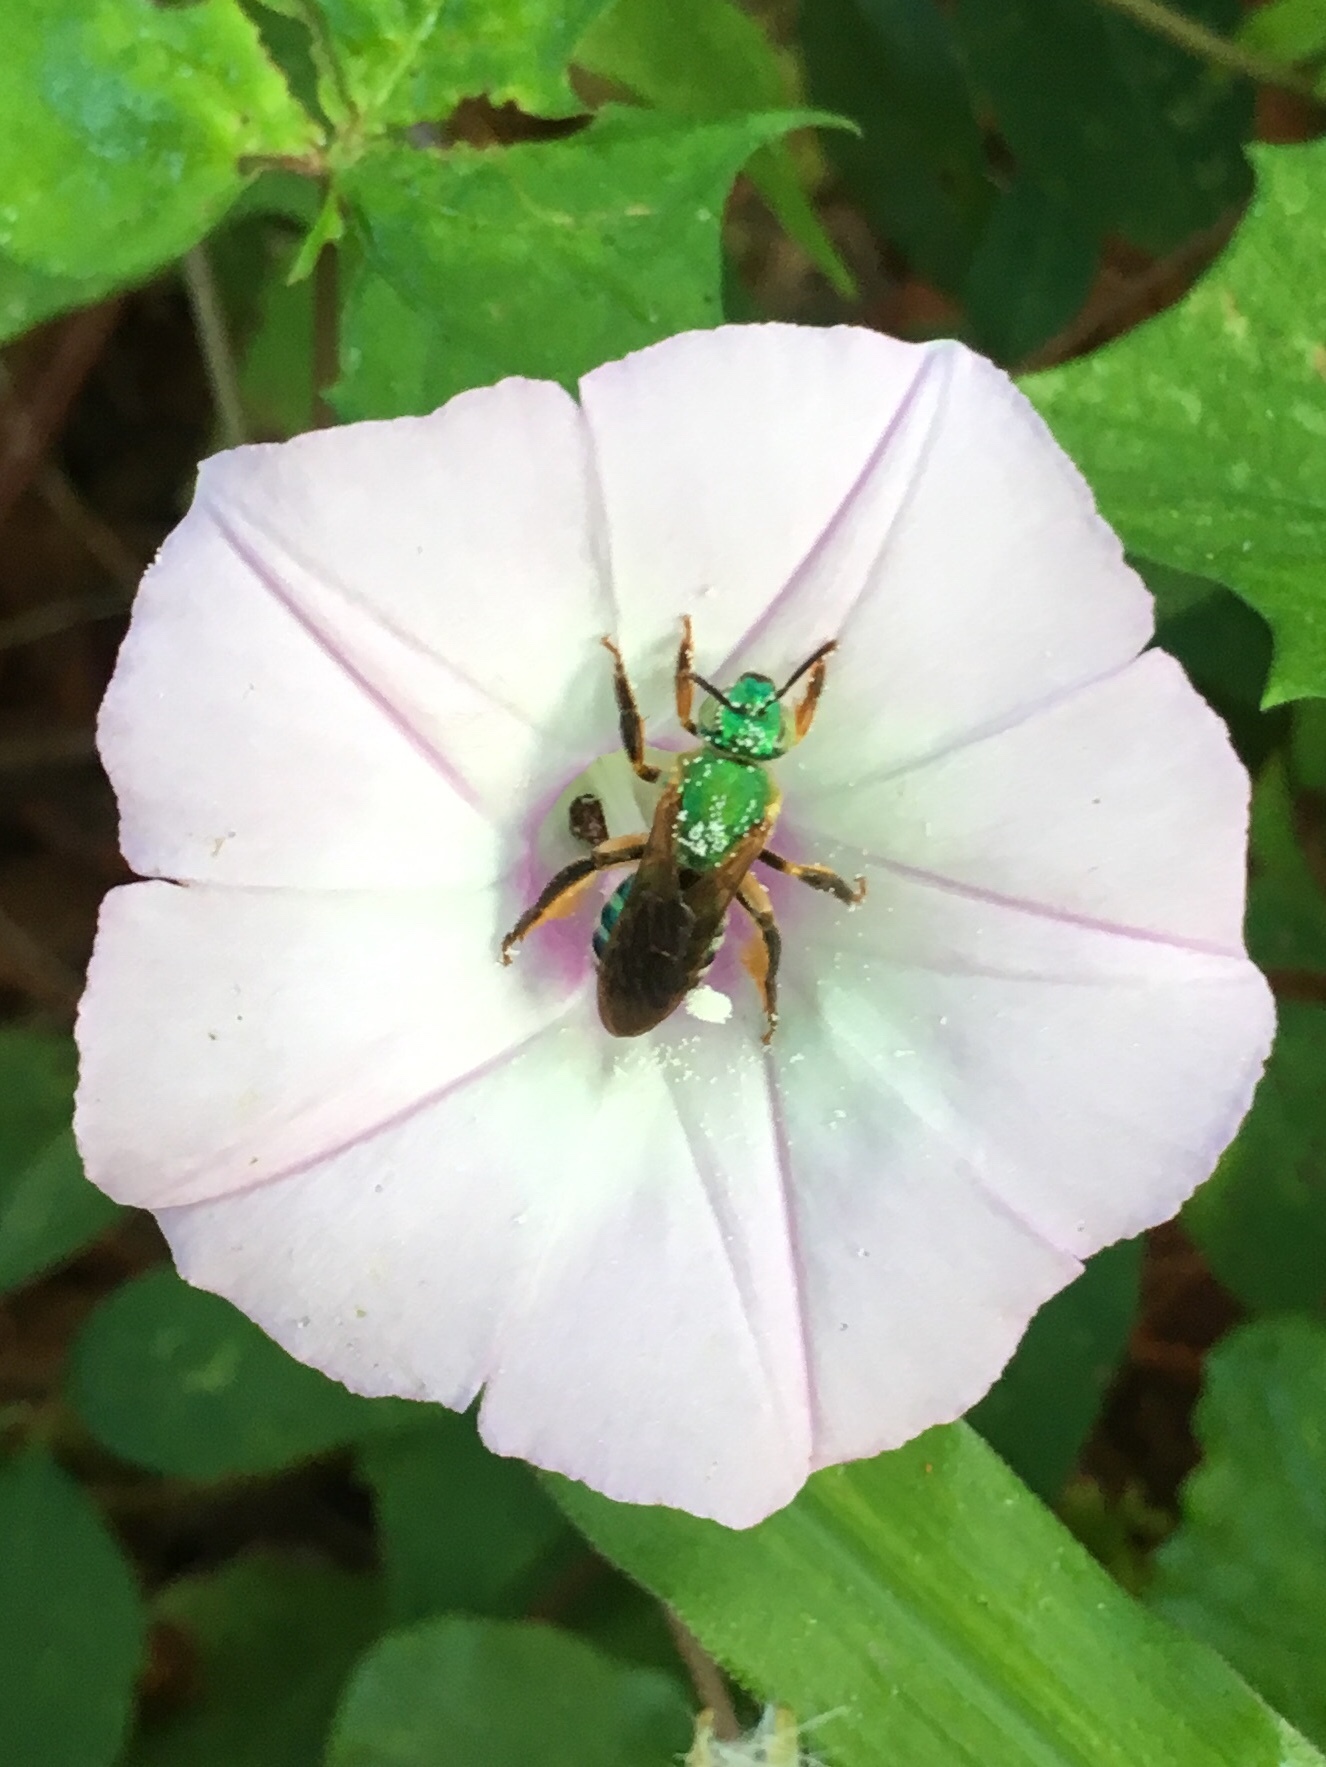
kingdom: Animalia
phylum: Arthropoda
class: Insecta
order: Hymenoptera
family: Halictidae
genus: Agapostemon
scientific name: Agapostemon splendens
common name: Brown-winged striped sweat bee
